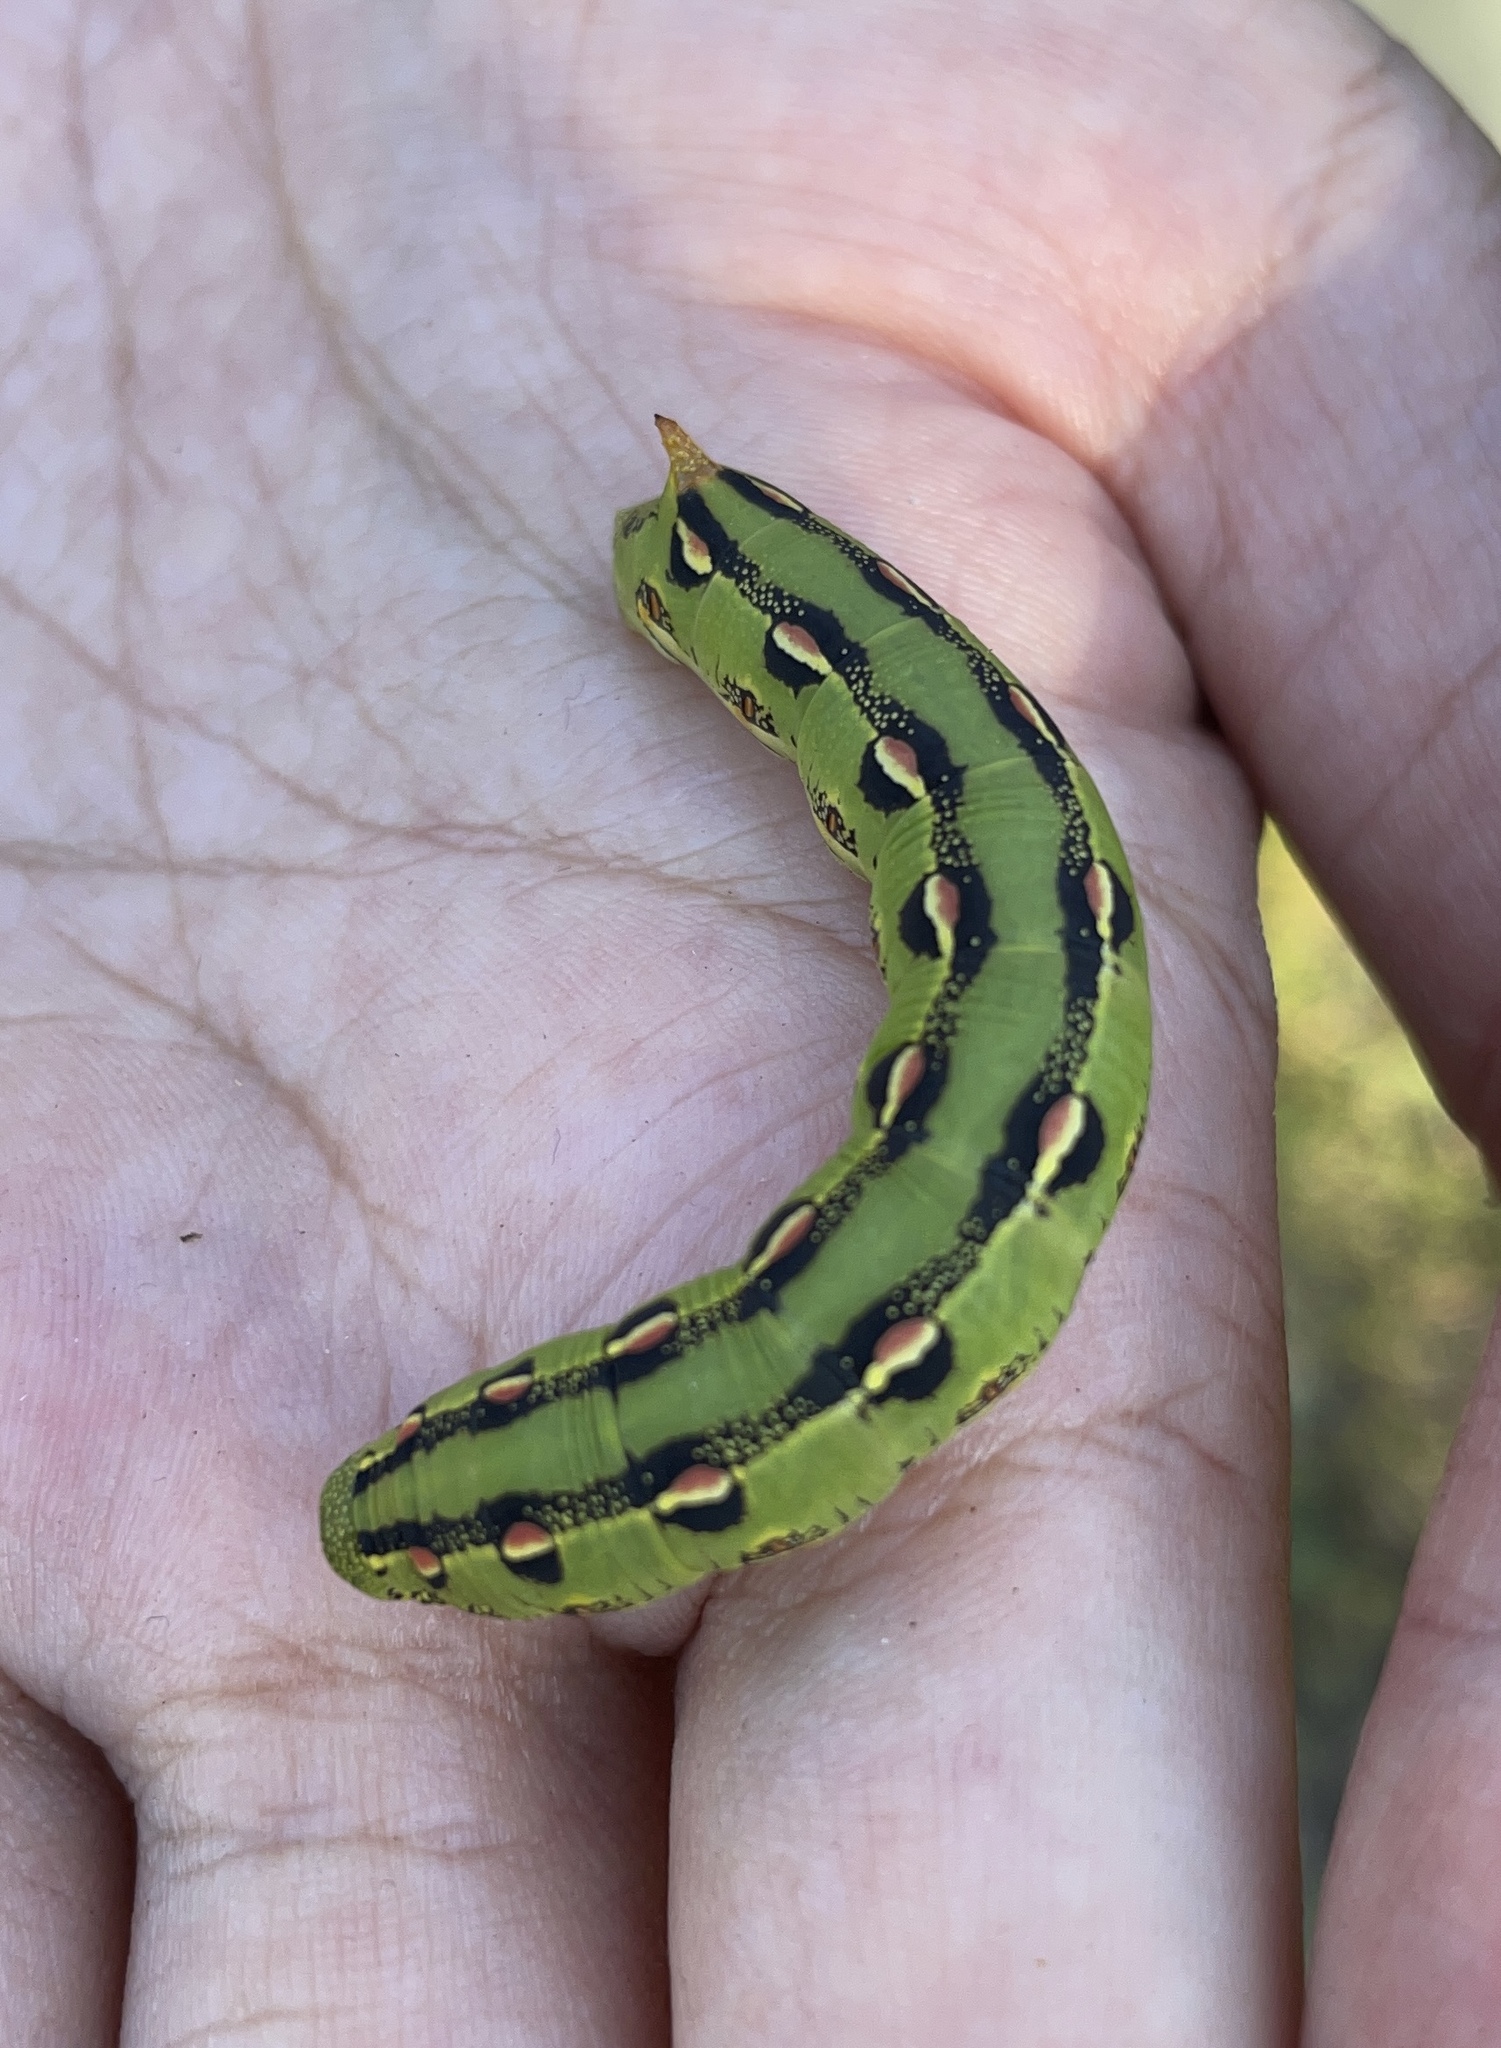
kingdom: Animalia
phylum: Arthropoda
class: Insecta
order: Lepidoptera
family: Sphingidae
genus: Hyles
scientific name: Hyles lineata
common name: White-lined sphinx
